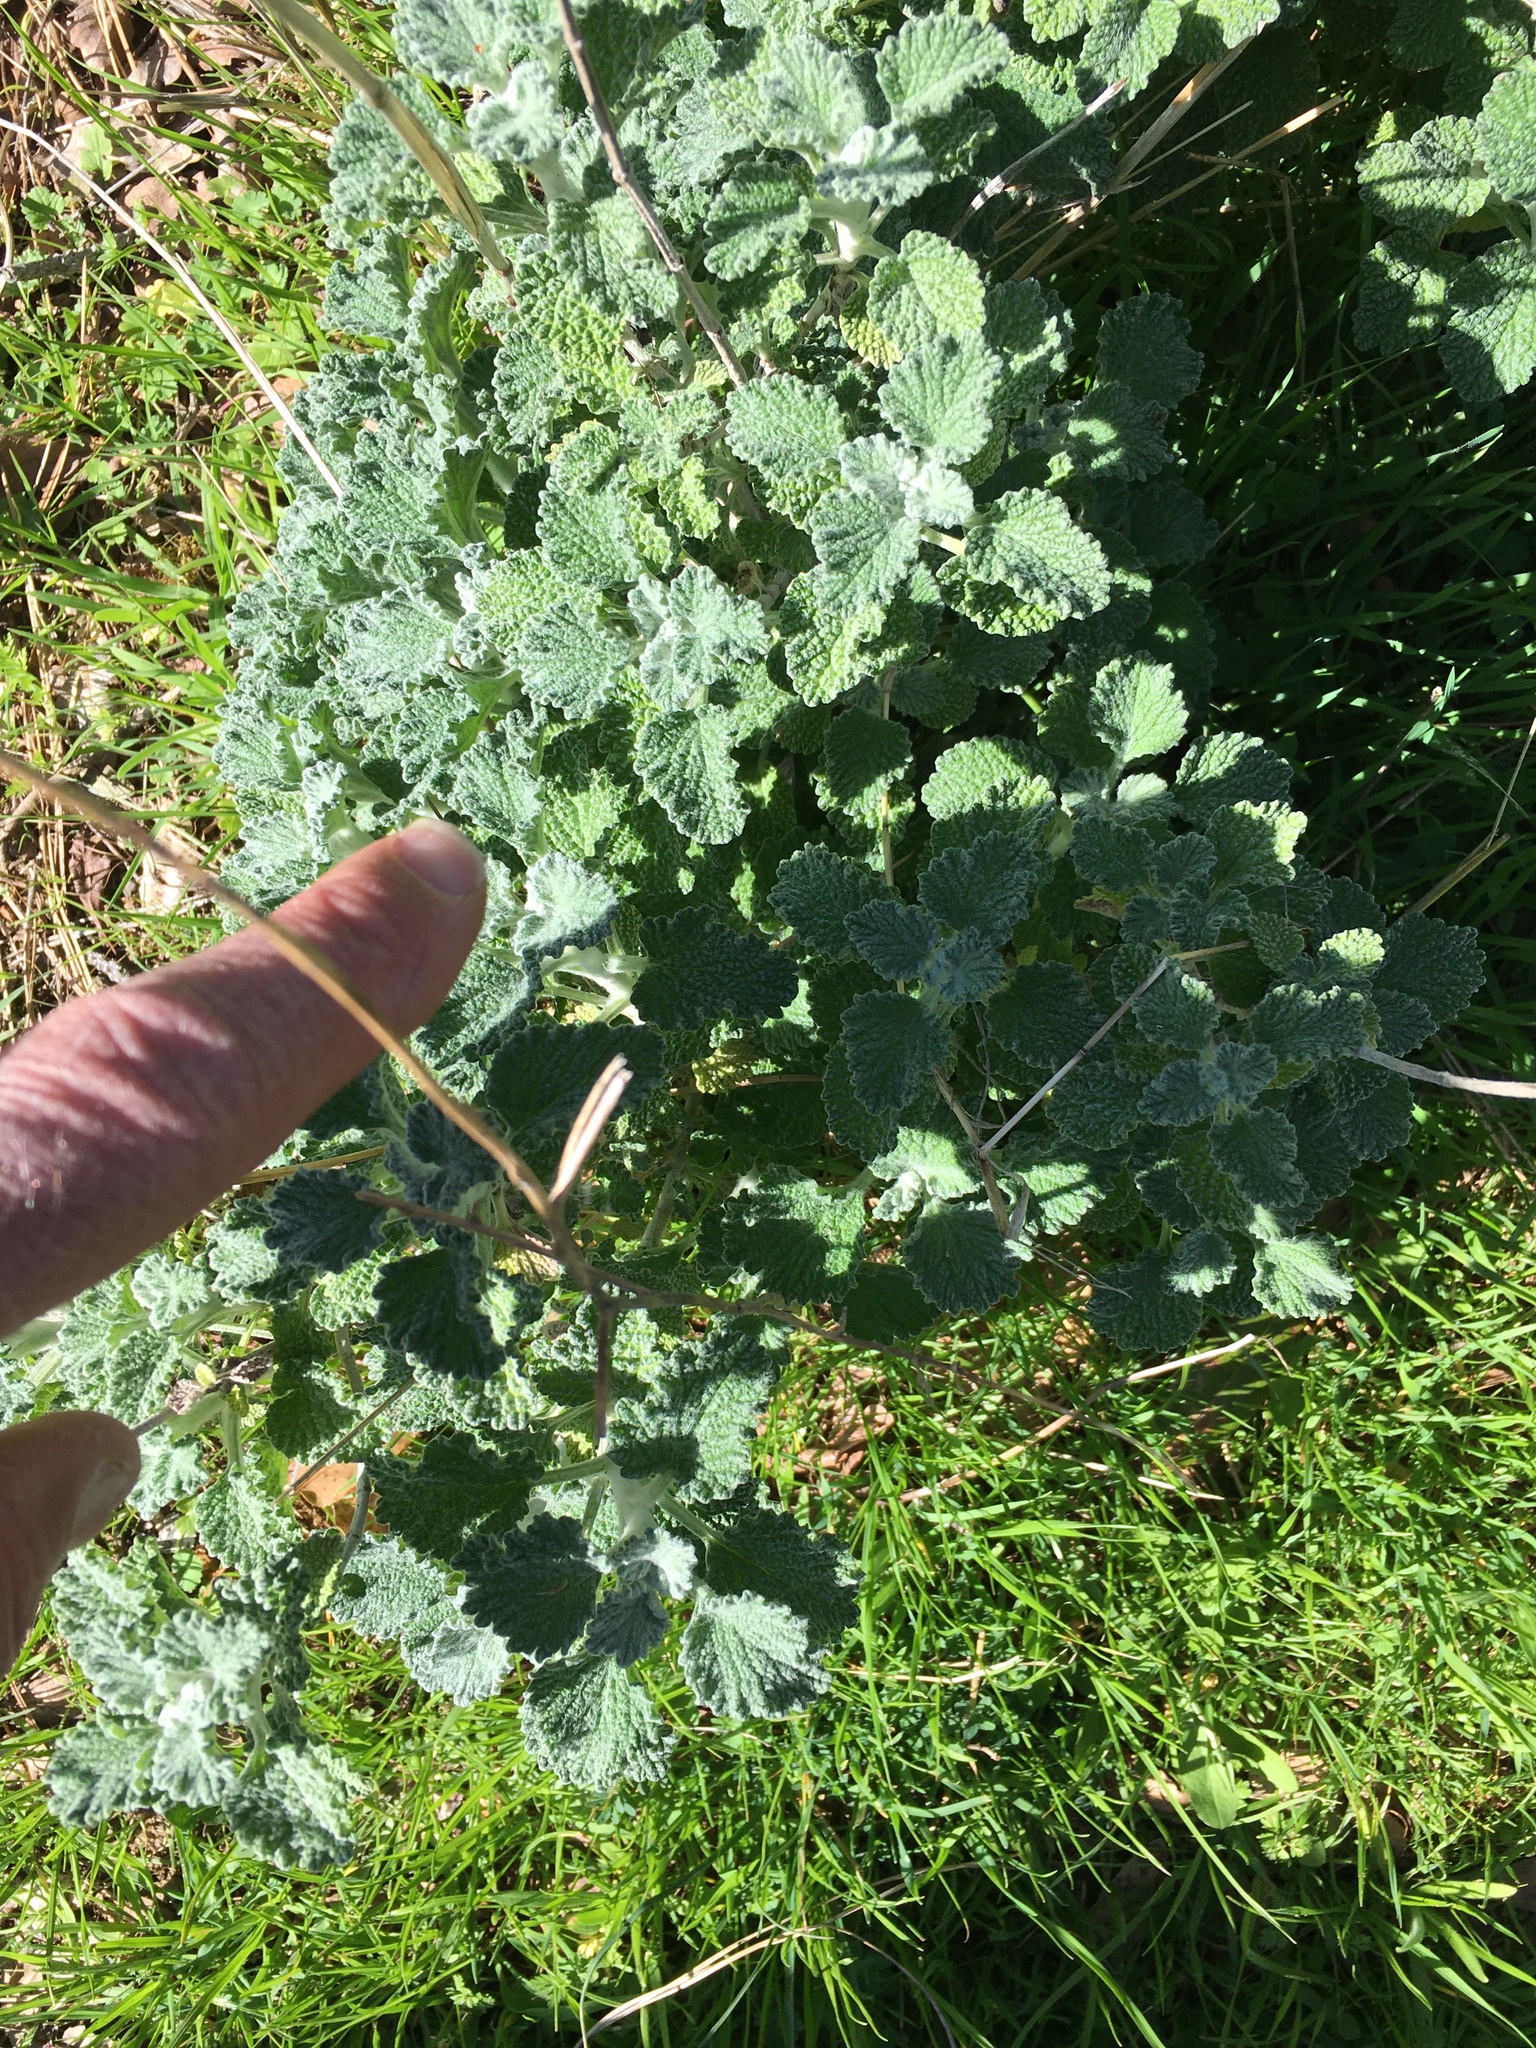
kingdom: Plantae
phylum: Tracheophyta
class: Magnoliopsida
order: Lamiales
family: Lamiaceae
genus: Marrubium
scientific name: Marrubium vulgare
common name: Horehound
